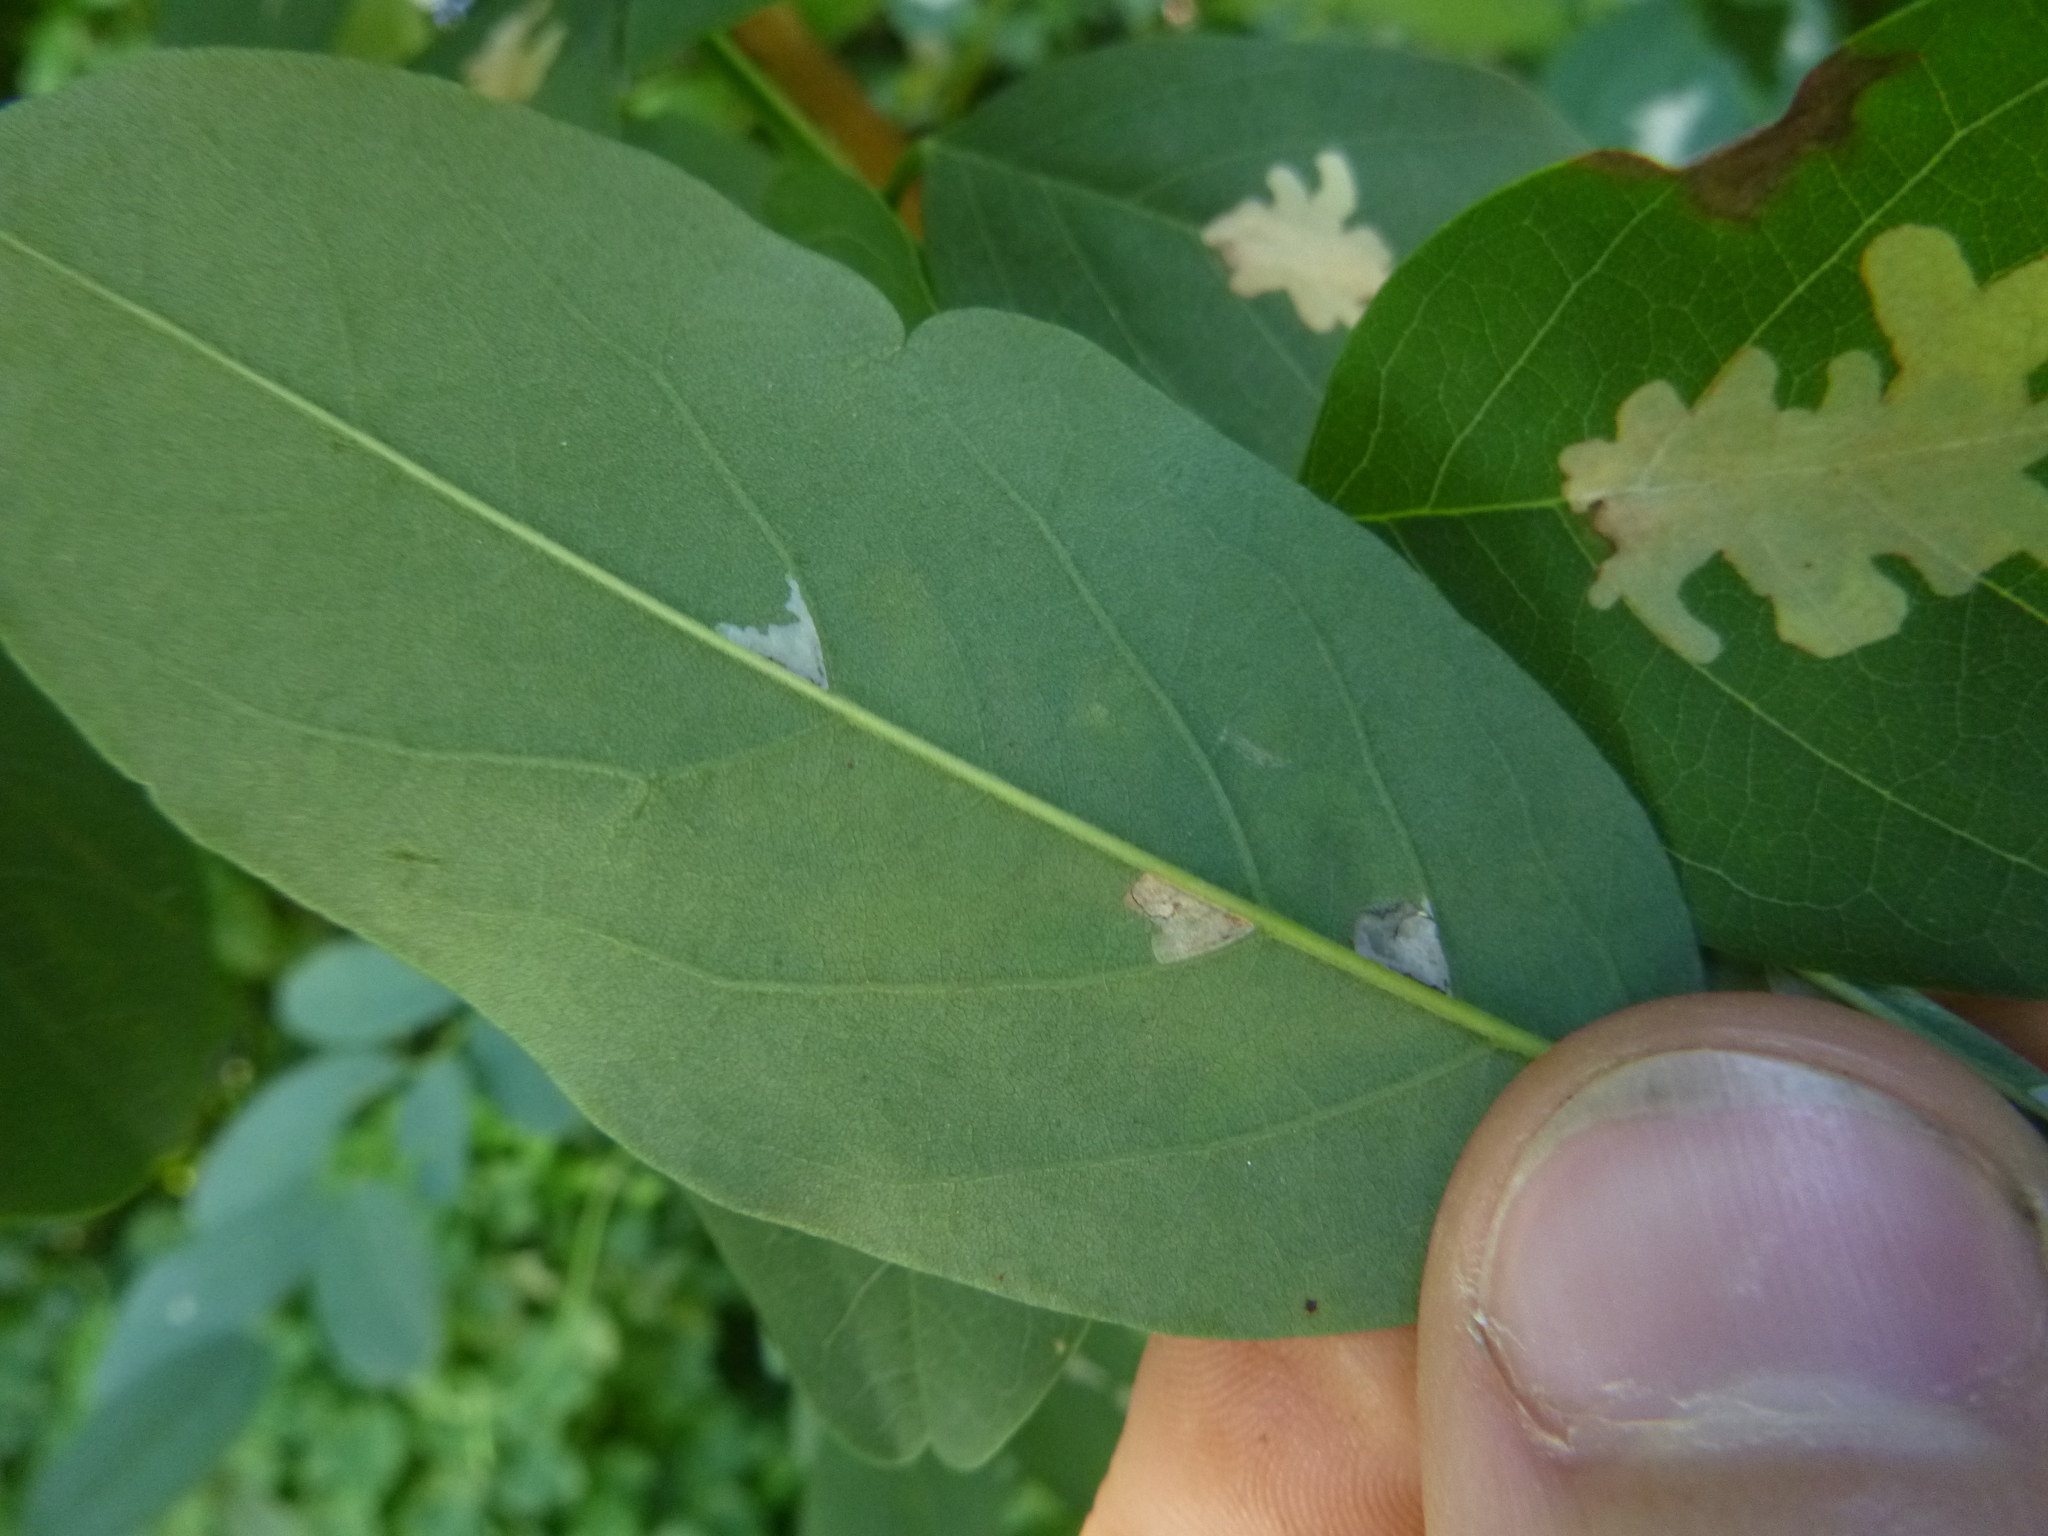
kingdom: Animalia
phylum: Arthropoda
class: Insecta
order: Lepidoptera
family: Gracillariidae
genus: Parectopa
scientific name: Parectopa robiniella
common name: Locust digitate leafminer
